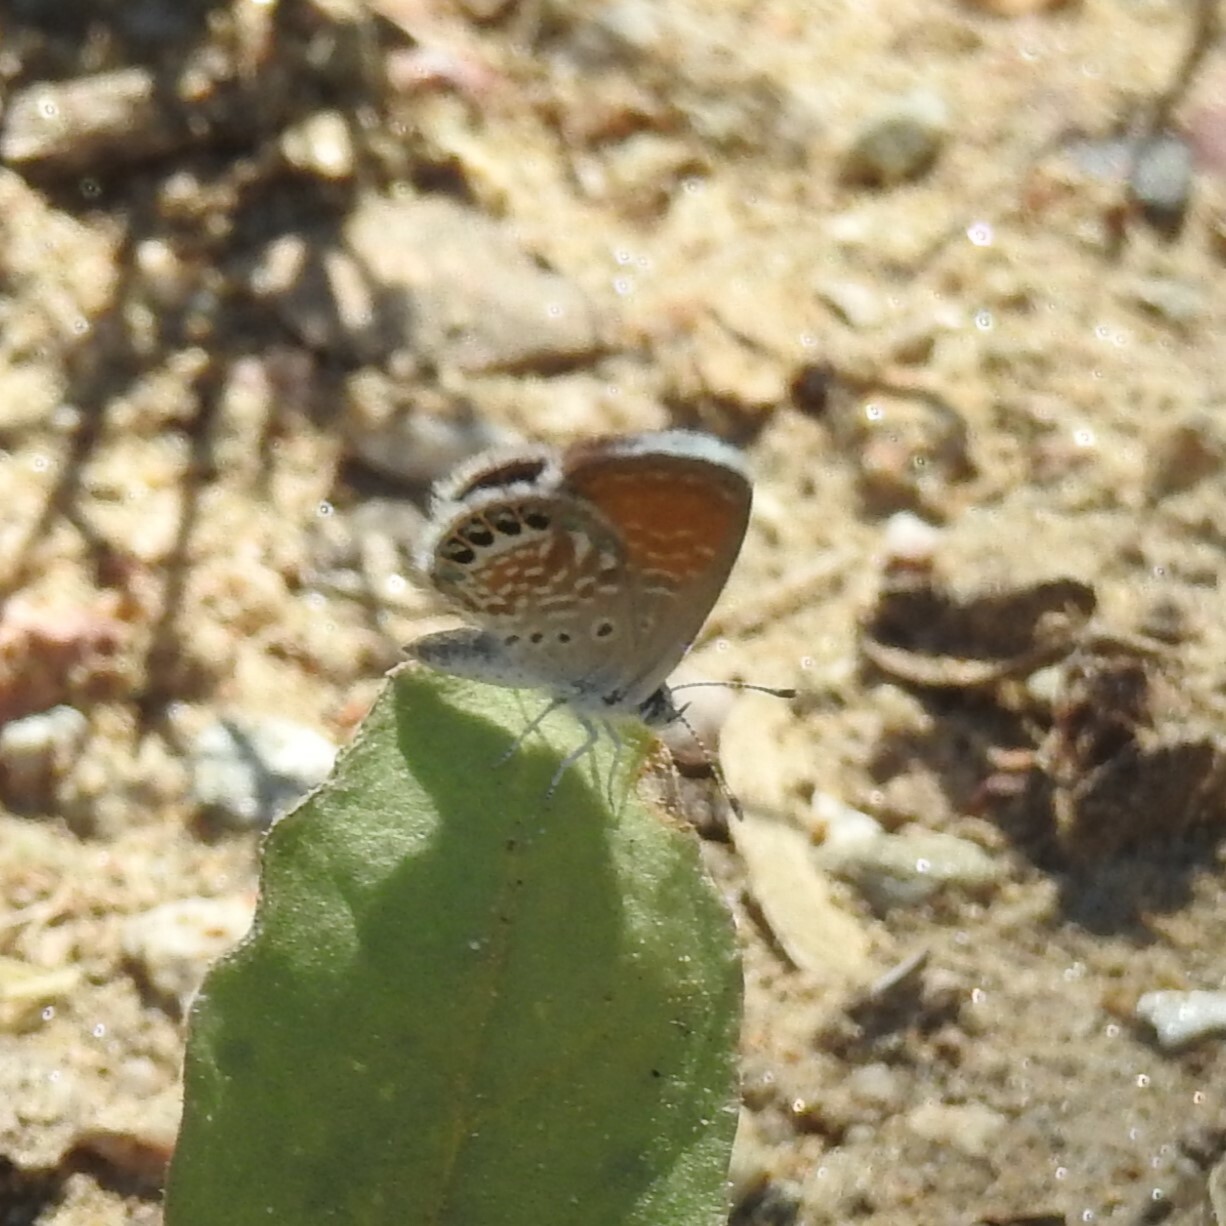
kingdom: Animalia
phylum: Arthropoda
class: Insecta
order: Lepidoptera
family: Lycaenidae
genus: Brephidium
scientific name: Brephidium exilis
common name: Pygmy blue
